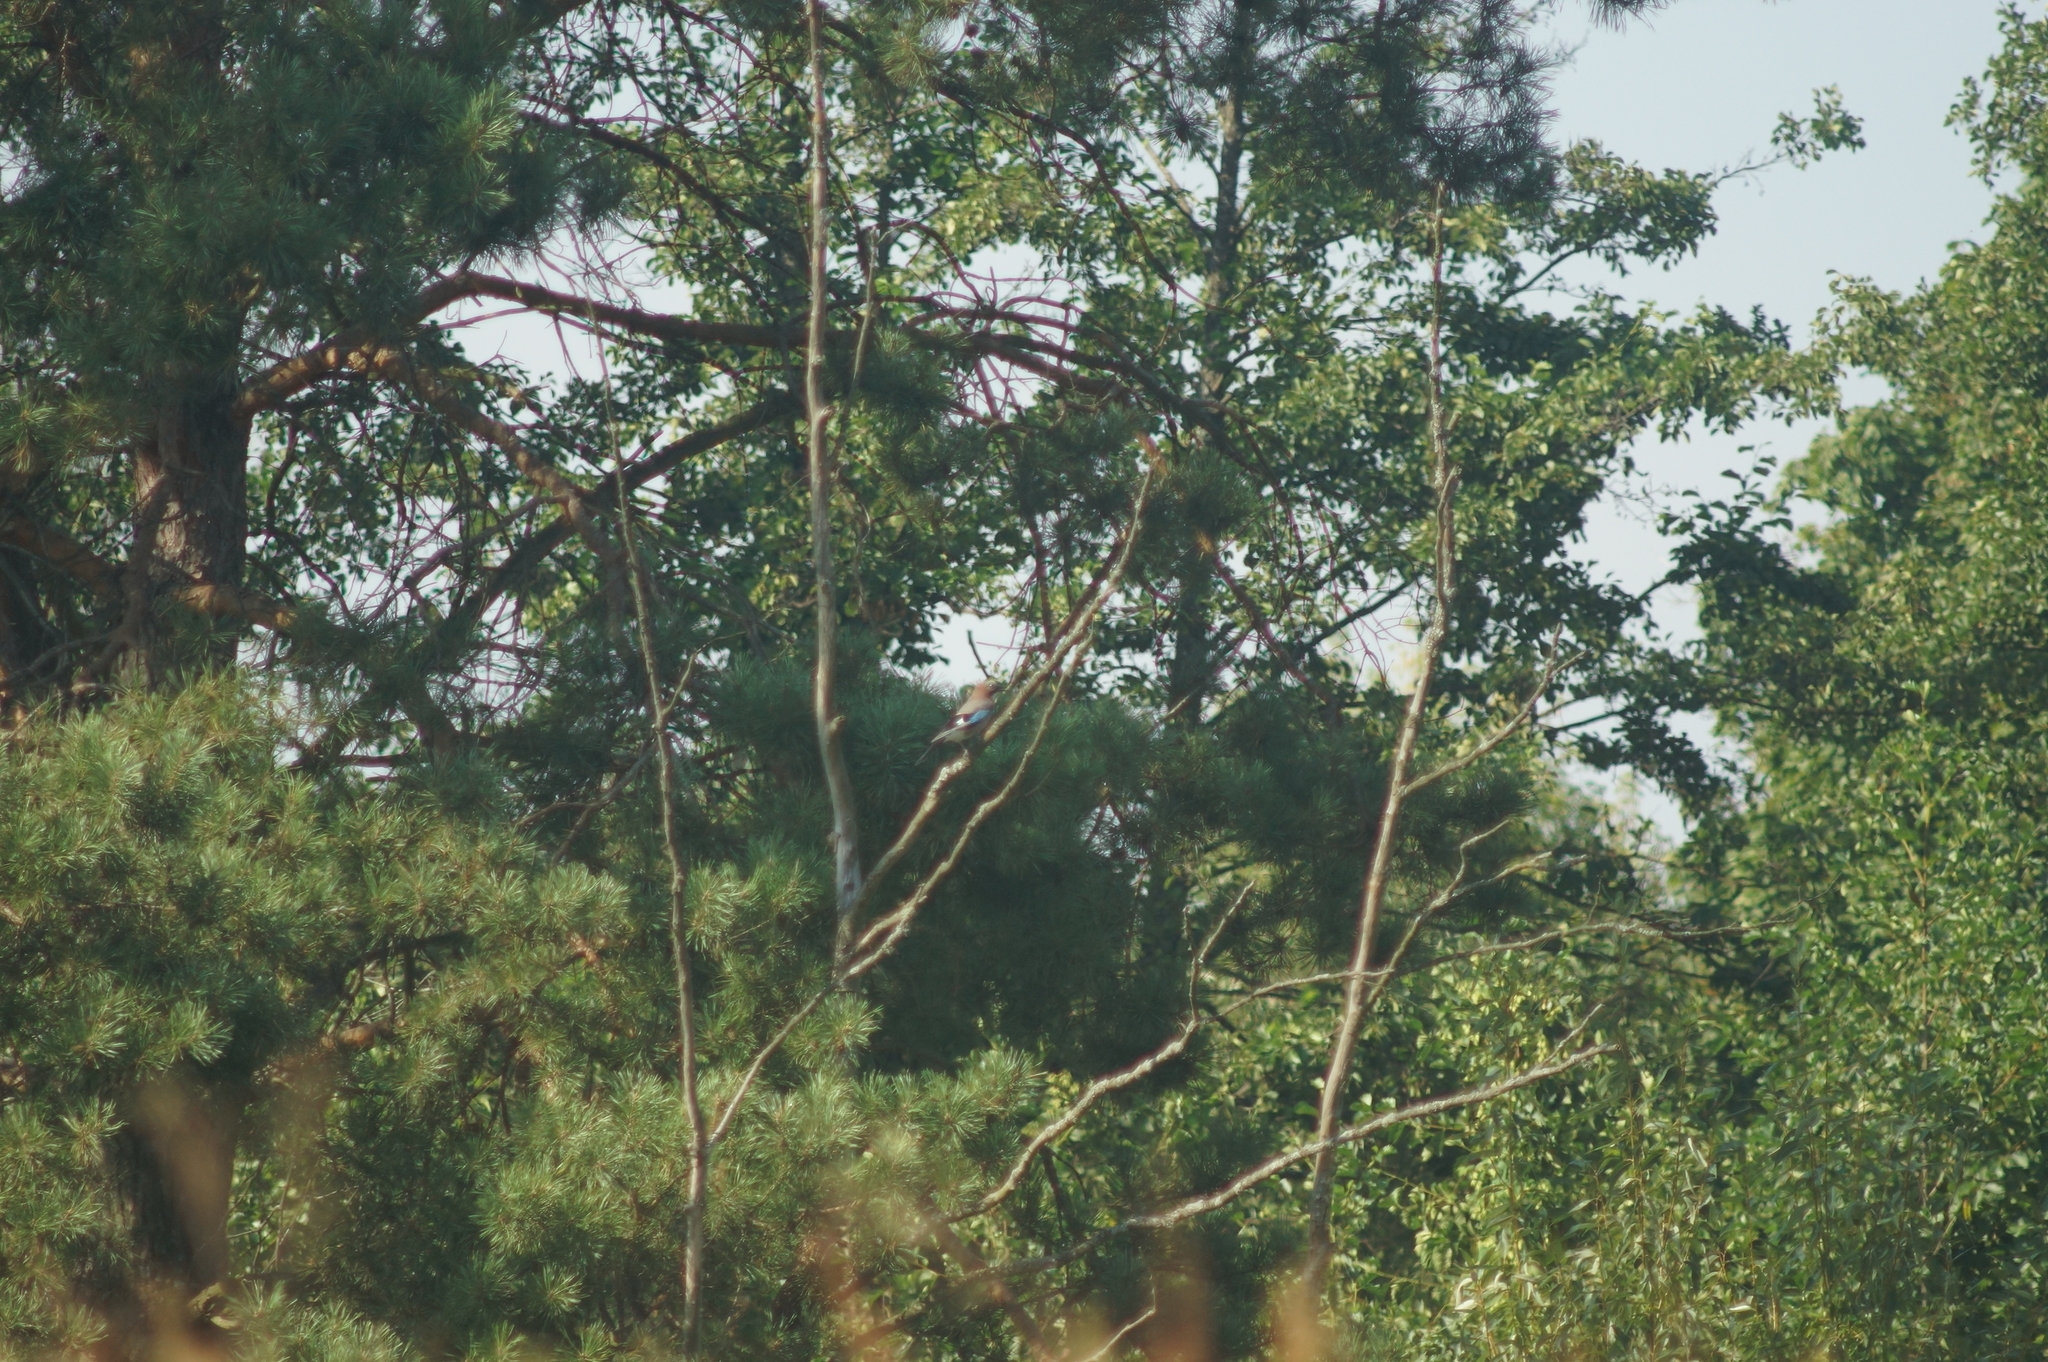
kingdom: Animalia
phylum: Chordata
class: Aves
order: Passeriformes
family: Corvidae
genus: Garrulus
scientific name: Garrulus glandarius
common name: Eurasian jay
